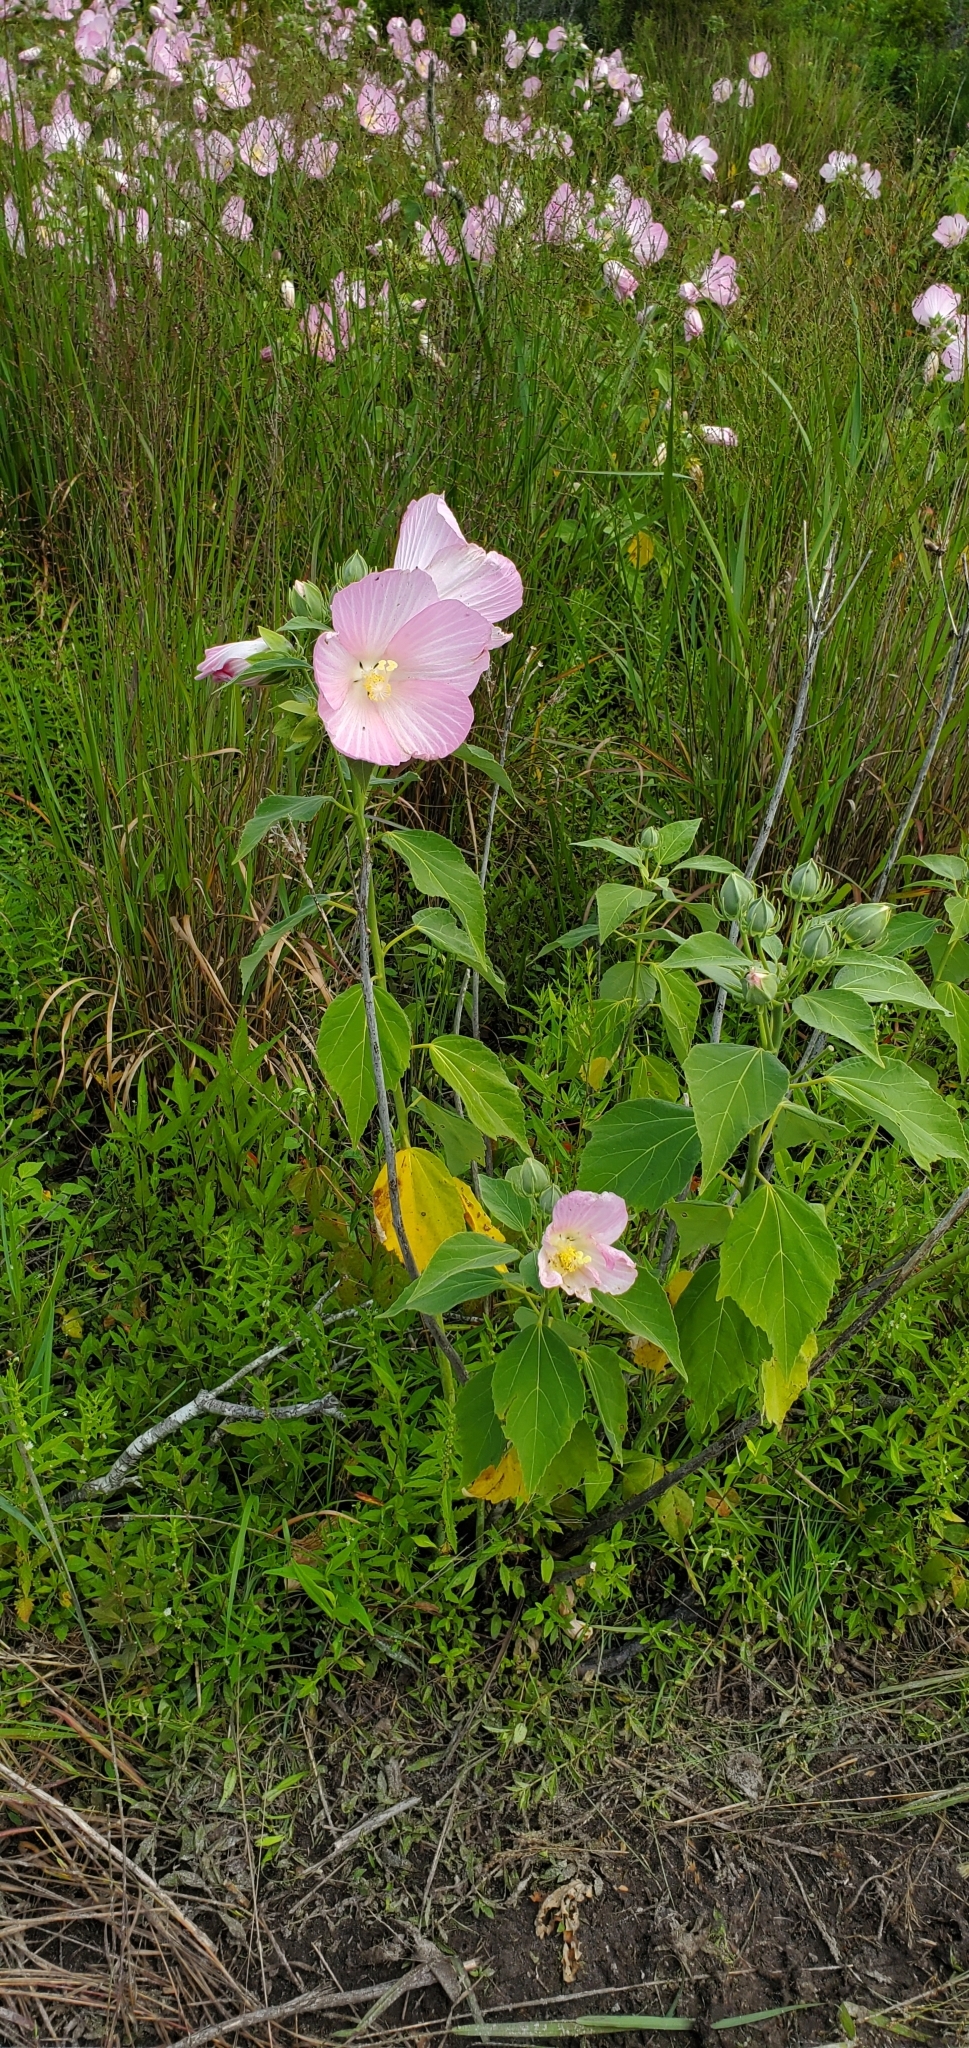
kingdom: Plantae
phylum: Tracheophyta
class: Magnoliopsida
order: Malvales
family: Malvaceae
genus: Hibiscus
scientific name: Hibiscus moscheutos
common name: Common rose-mallow
